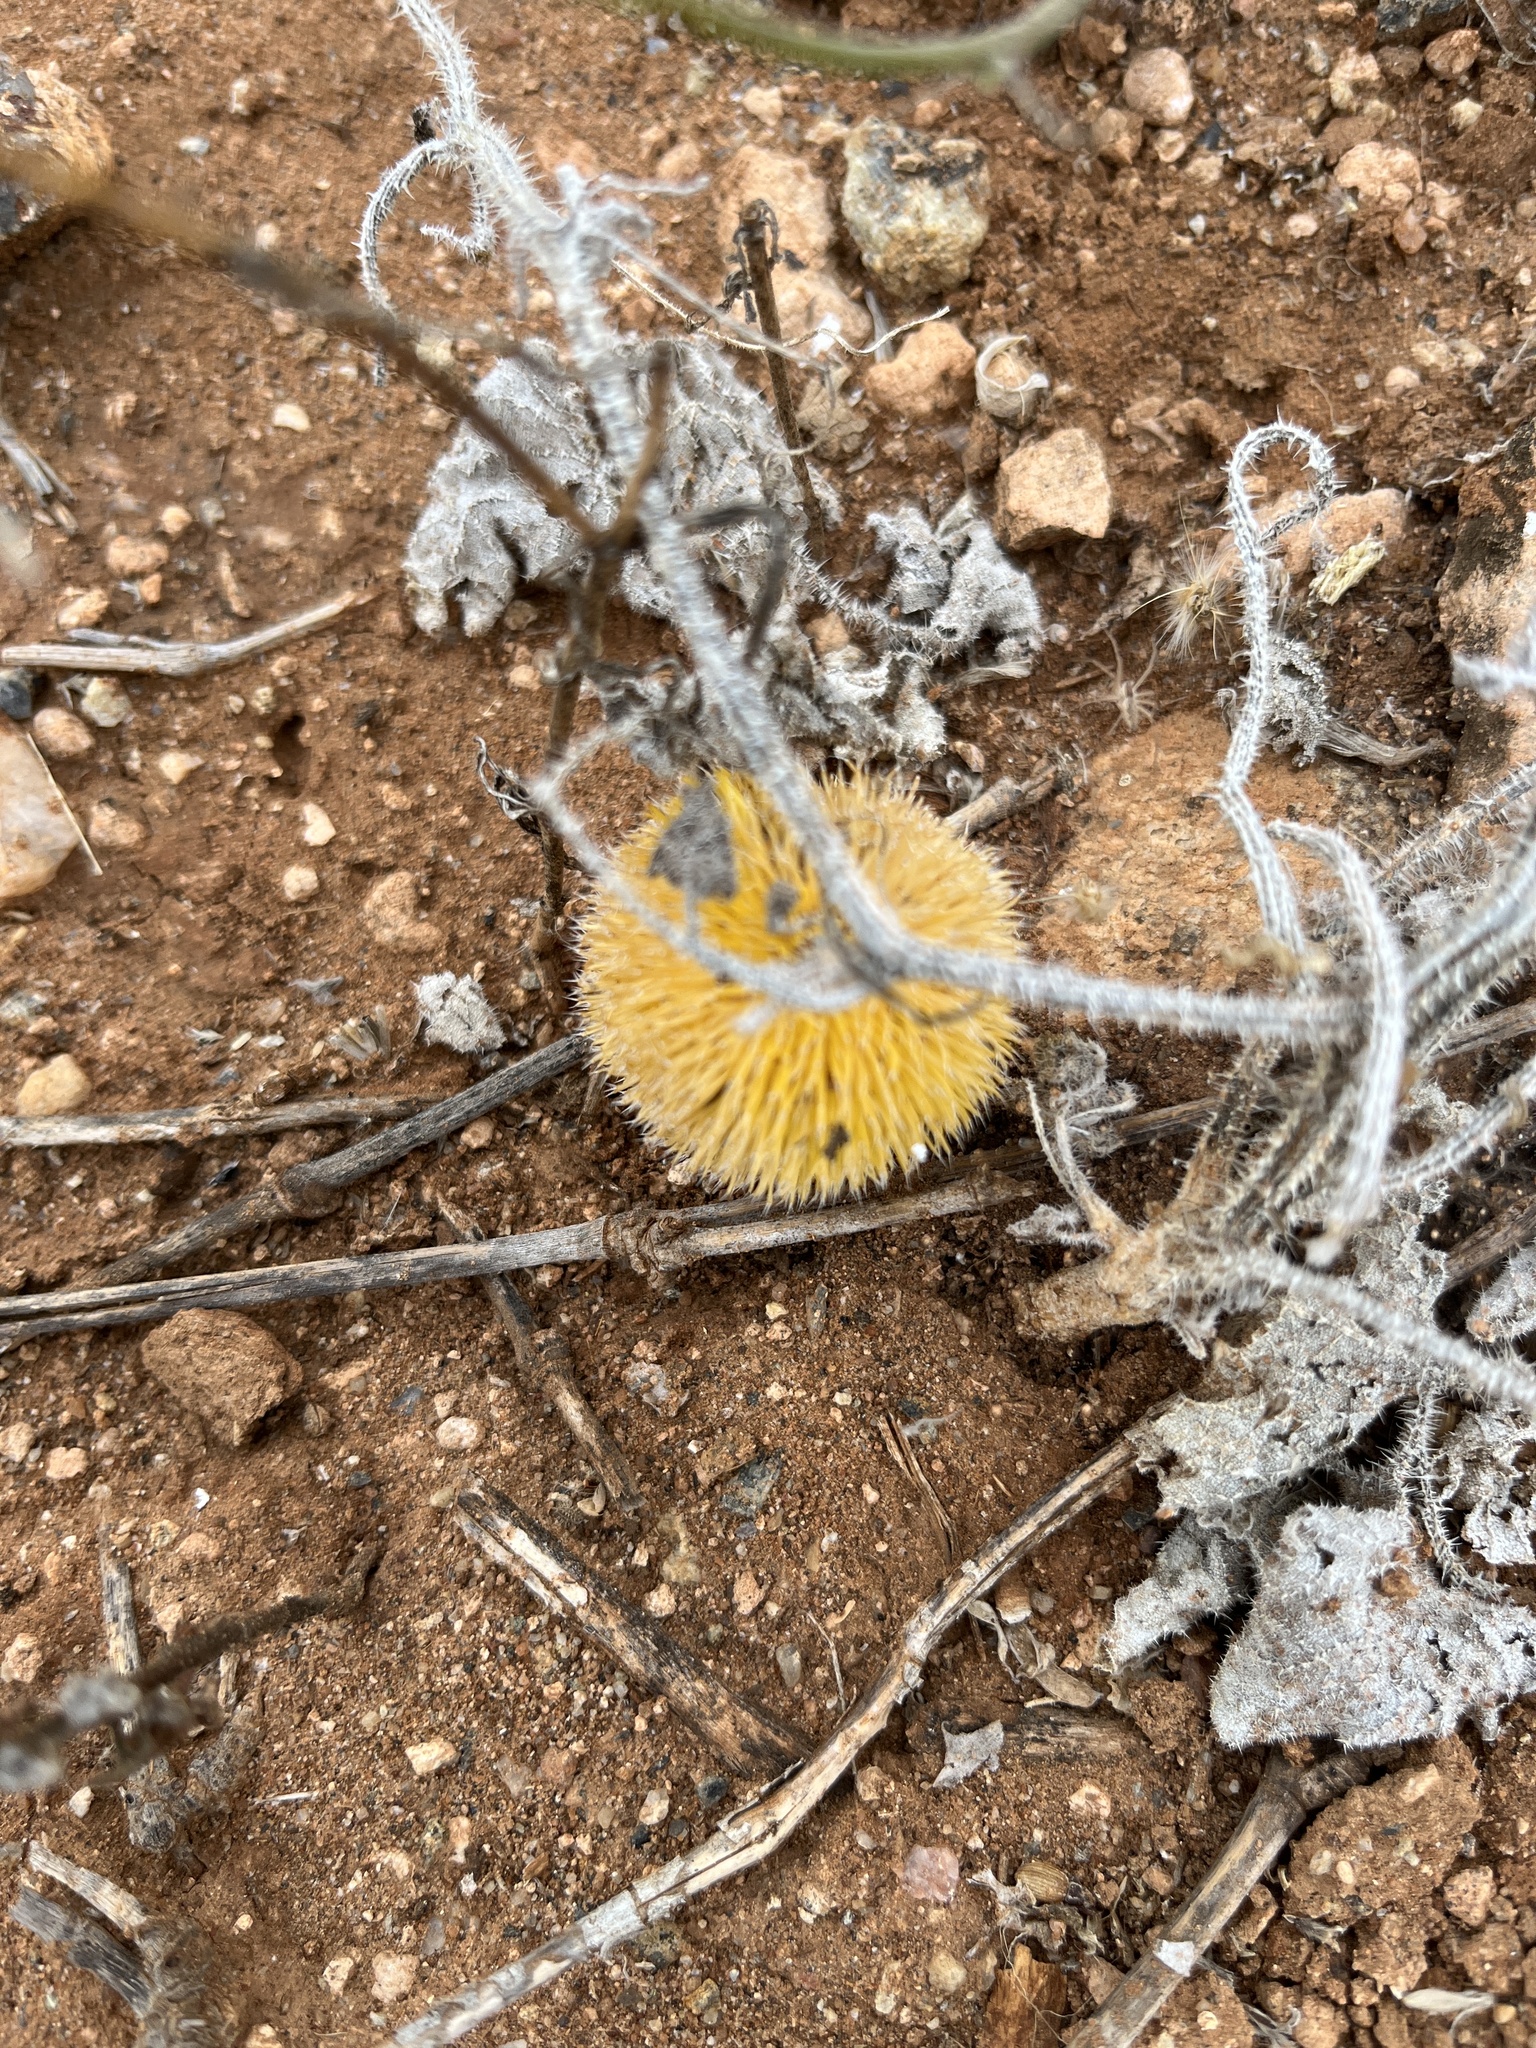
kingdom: Plantae
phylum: Tracheophyta
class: Magnoliopsida
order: Cucurbitales
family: Cucurbitaceae
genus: Cucumis
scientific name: Cucumis dipsaceus
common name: Hedgehog gourd
